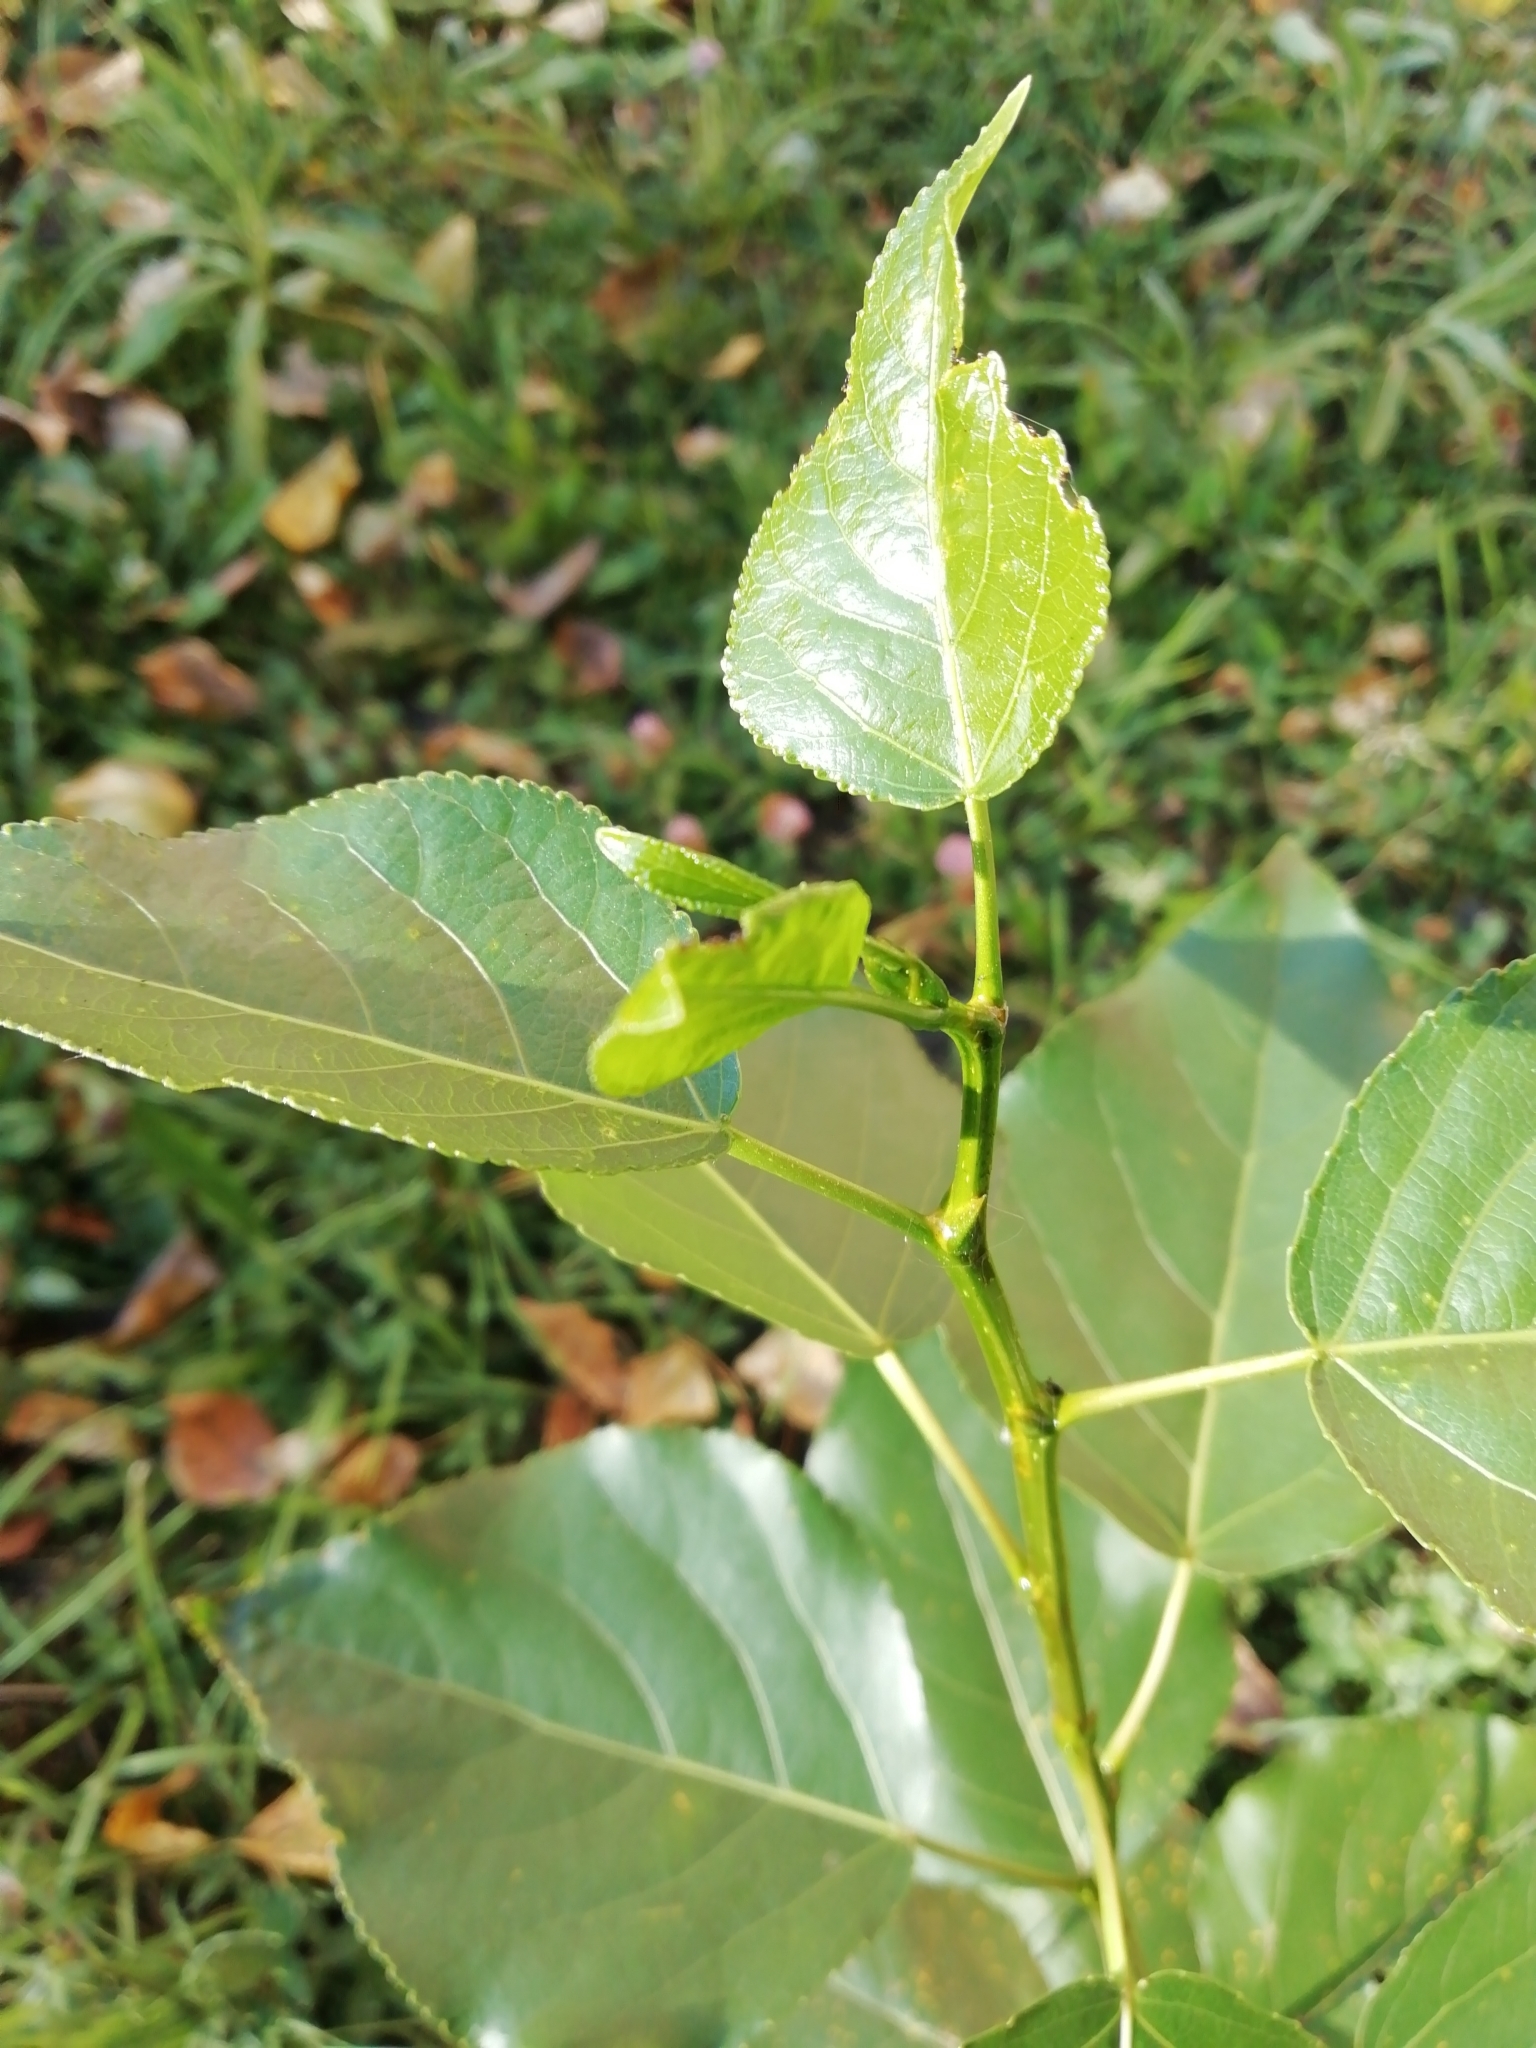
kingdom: Plantae
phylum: Tracheophyta
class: Magnoliopsida
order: Malpighiales
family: Salicaceae
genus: Populus
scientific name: Populus sibirica
